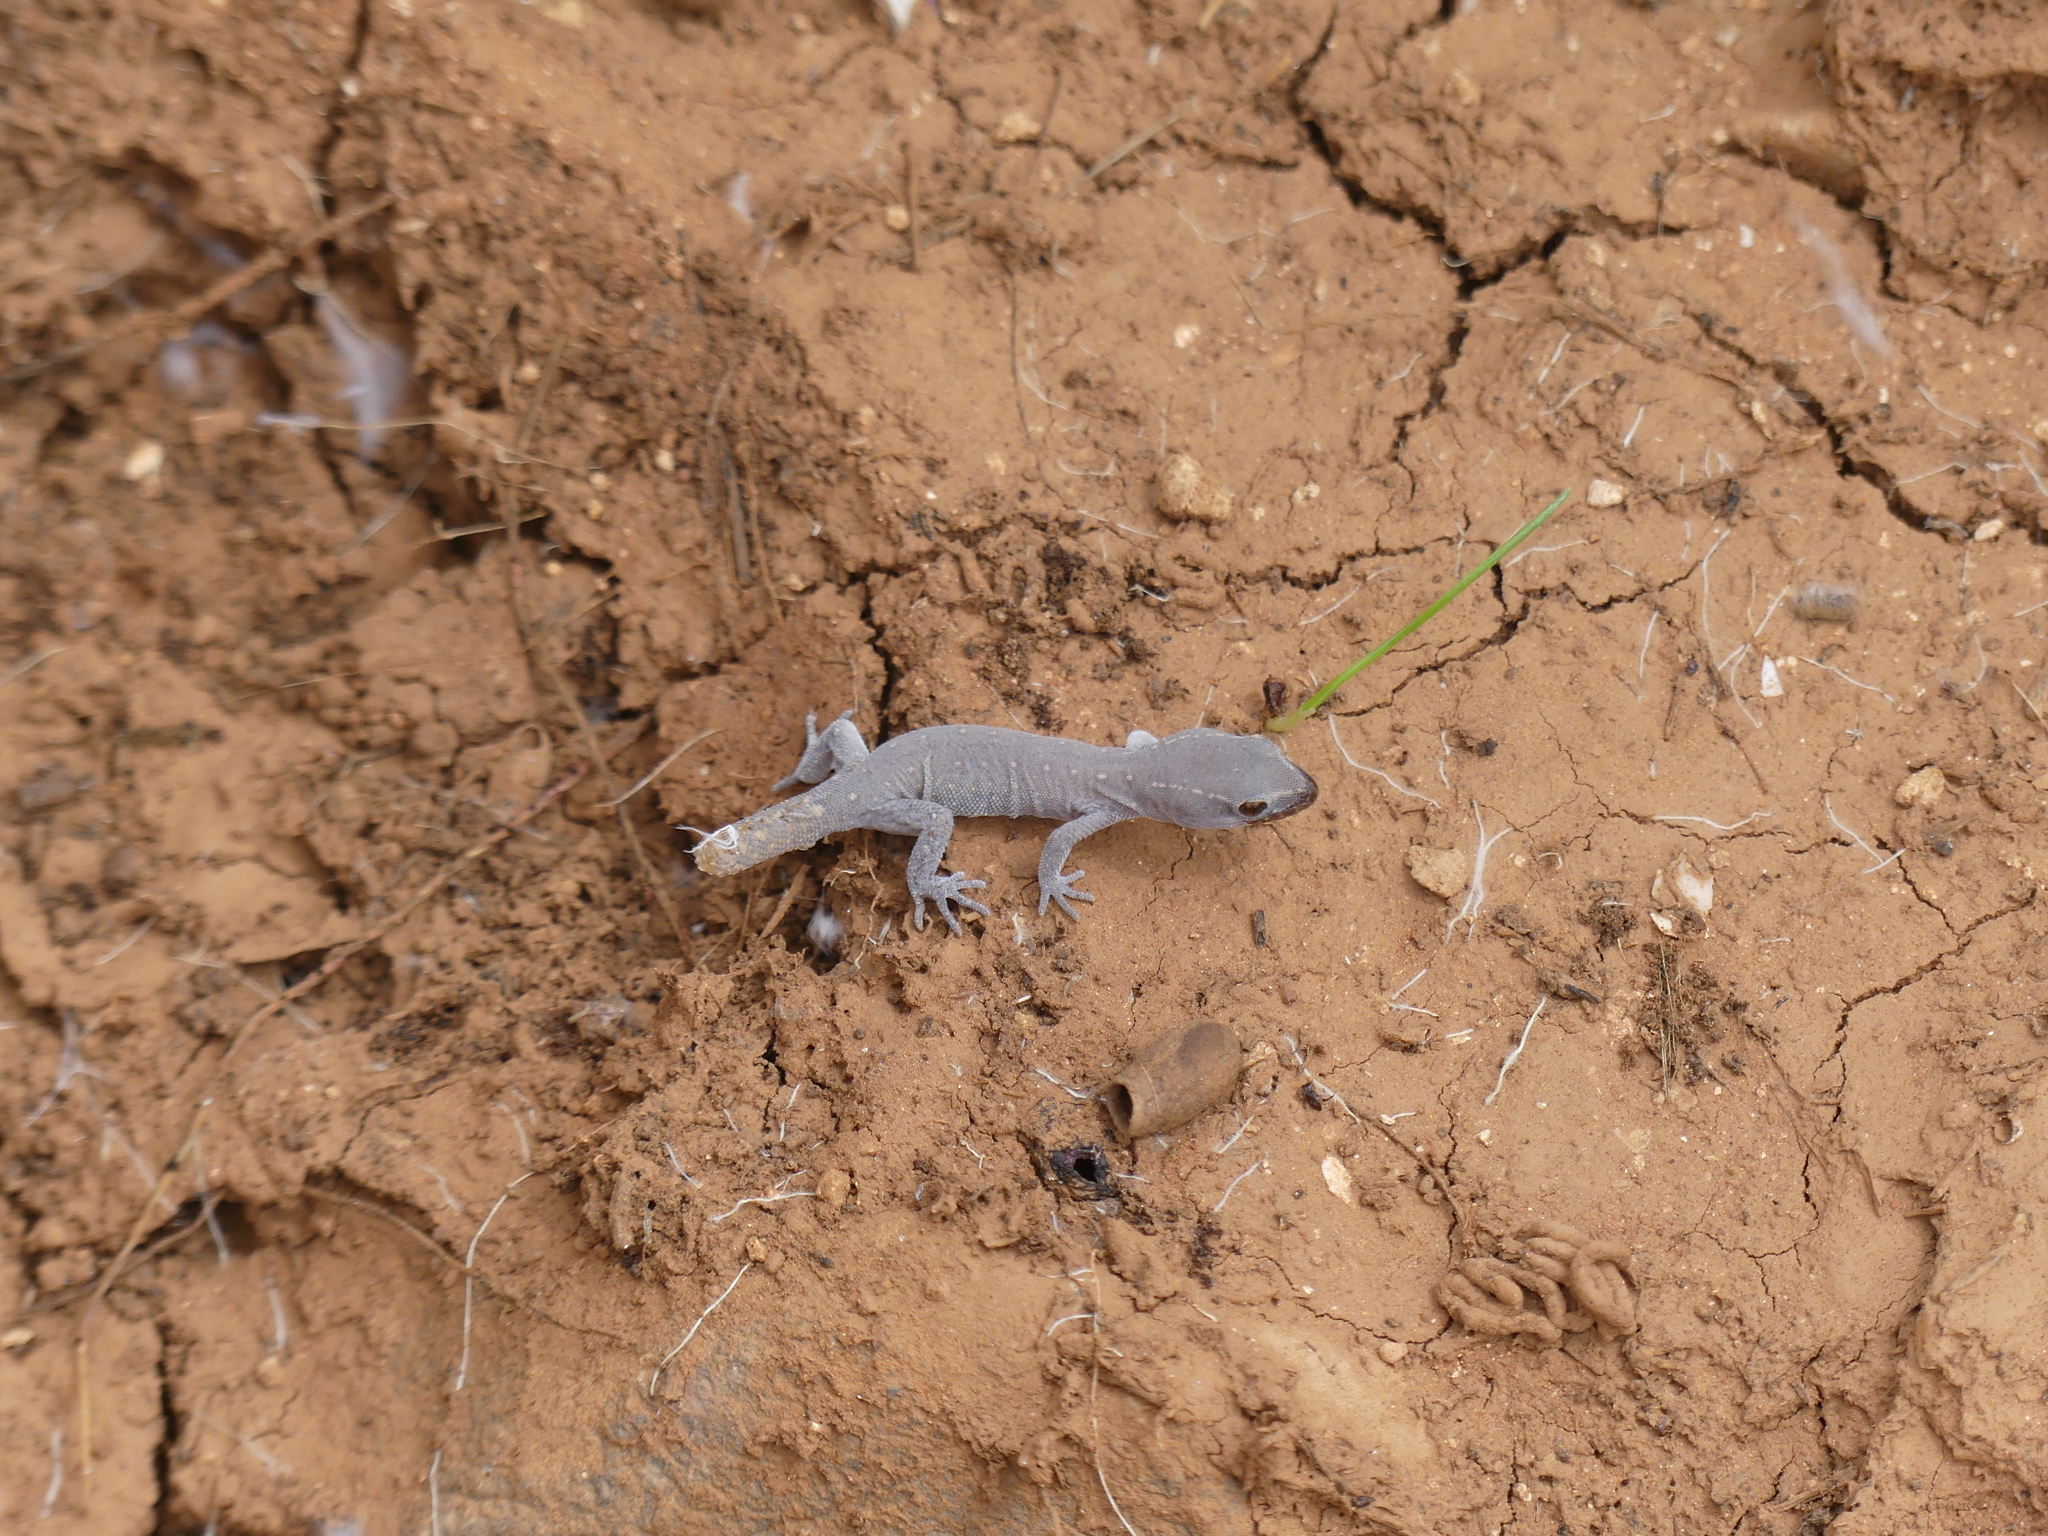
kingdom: Animalia
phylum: Chordata
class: Squamata
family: Sphaerodactylidae
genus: Saurodactylus
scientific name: Saurodactylus brosseti
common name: Morocco lizard-fingered gecko
